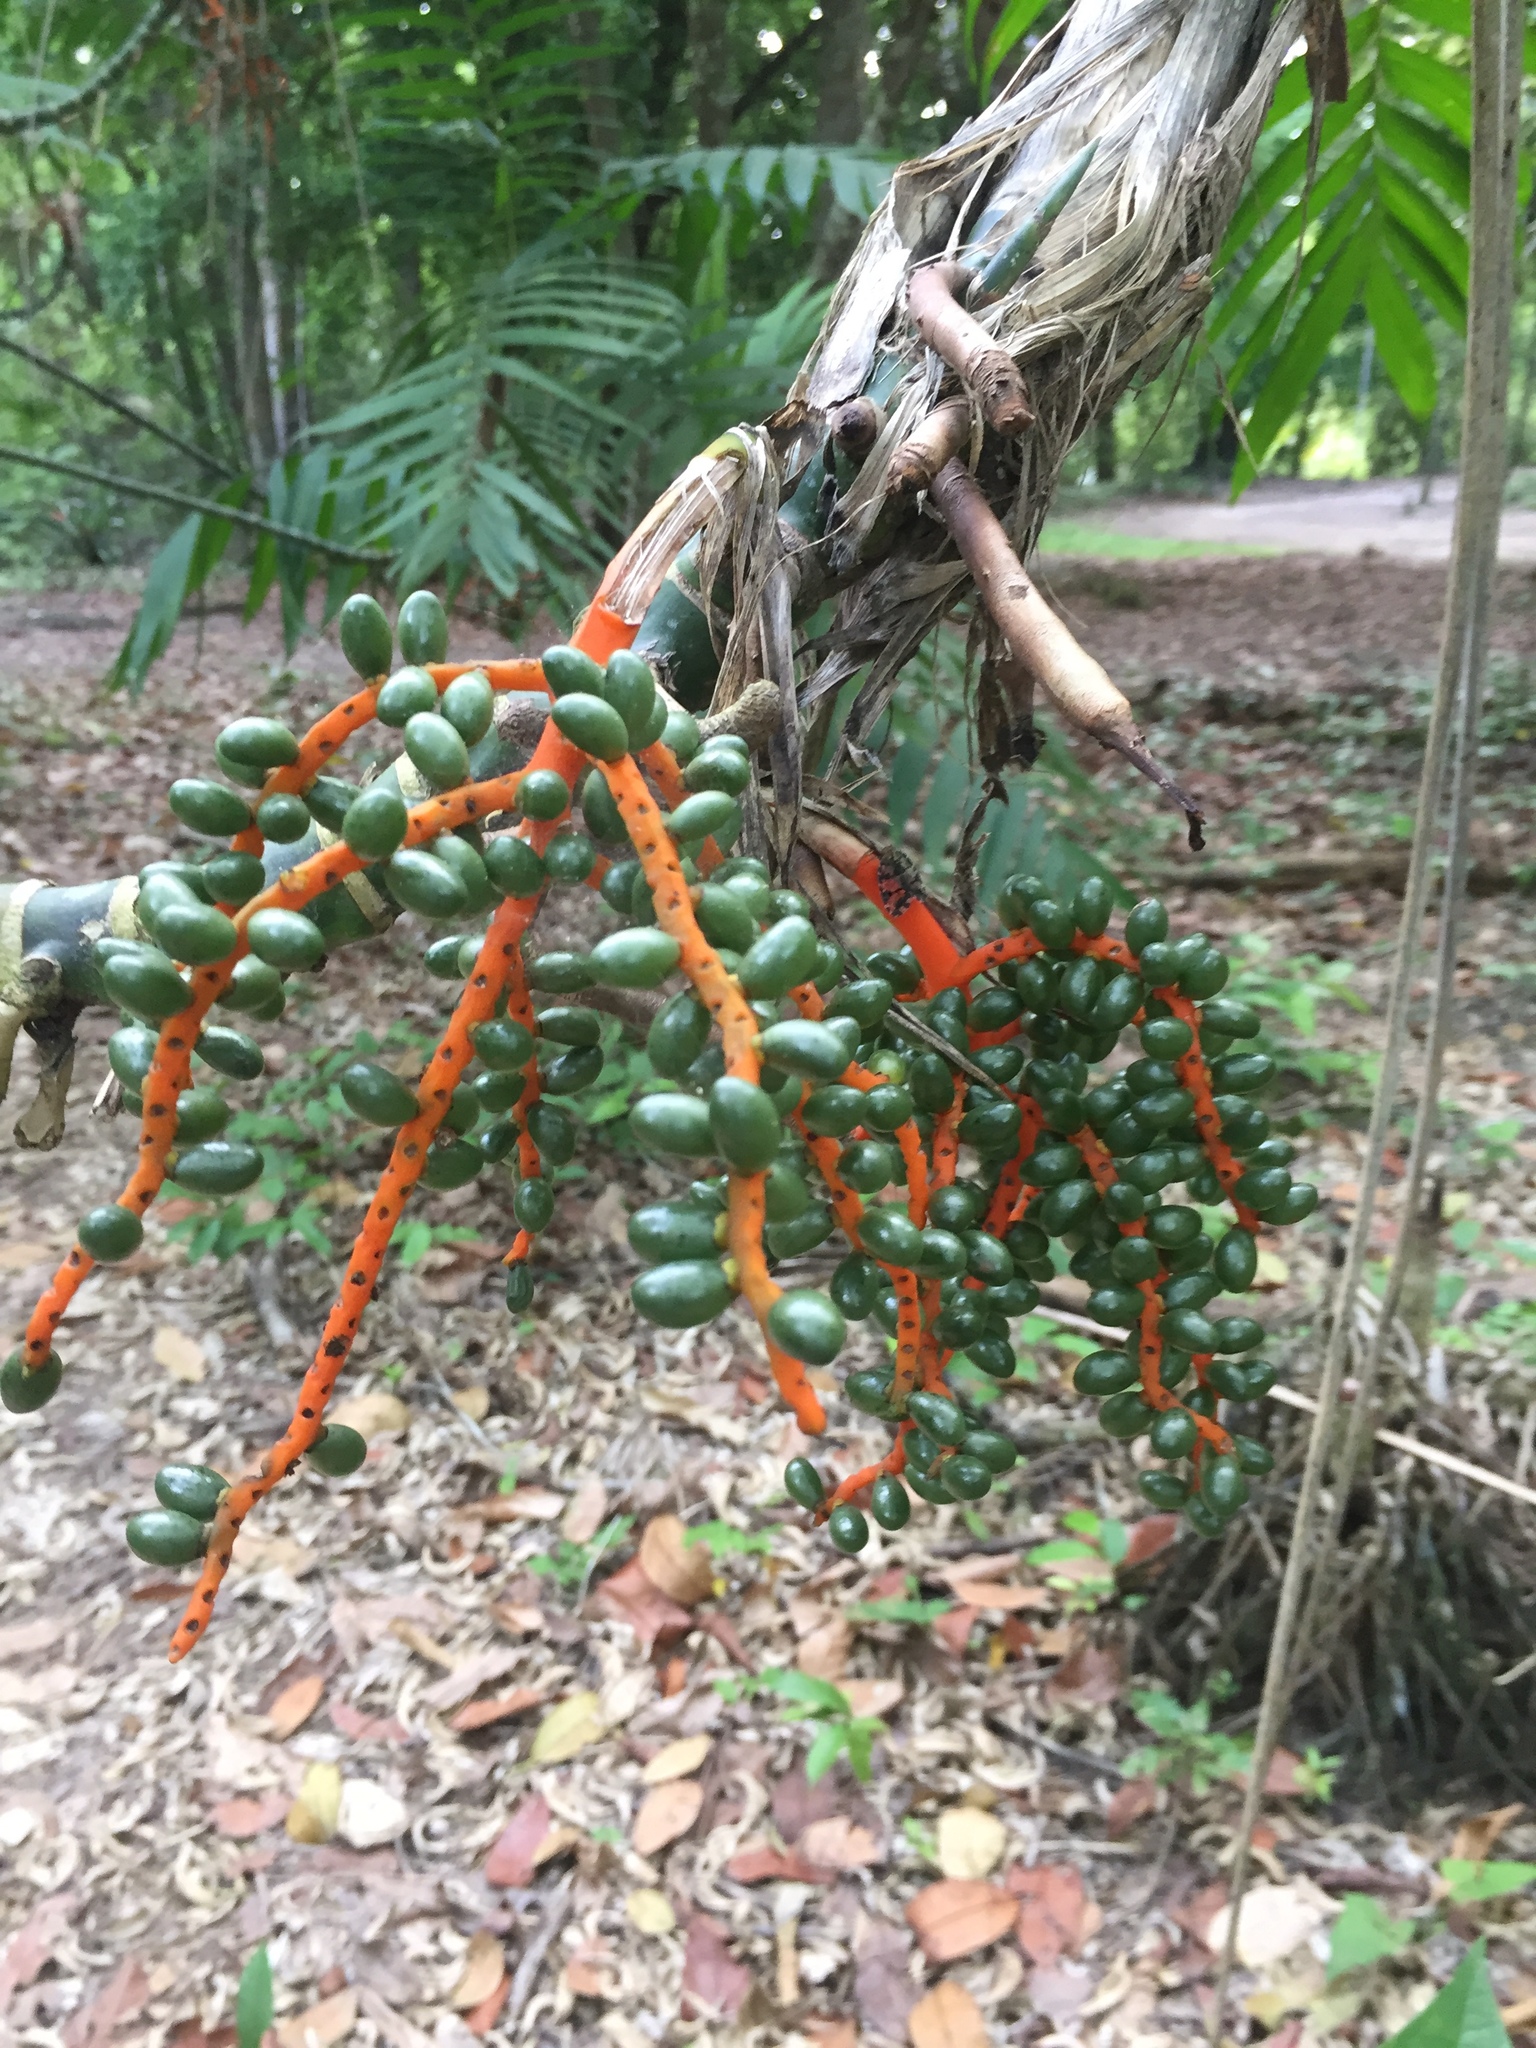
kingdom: Plantae
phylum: Tracheophyta
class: Liliopsida
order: Arecales
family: Arecaceae
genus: Chamaedorea
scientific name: Chamaedorea tepejilote
